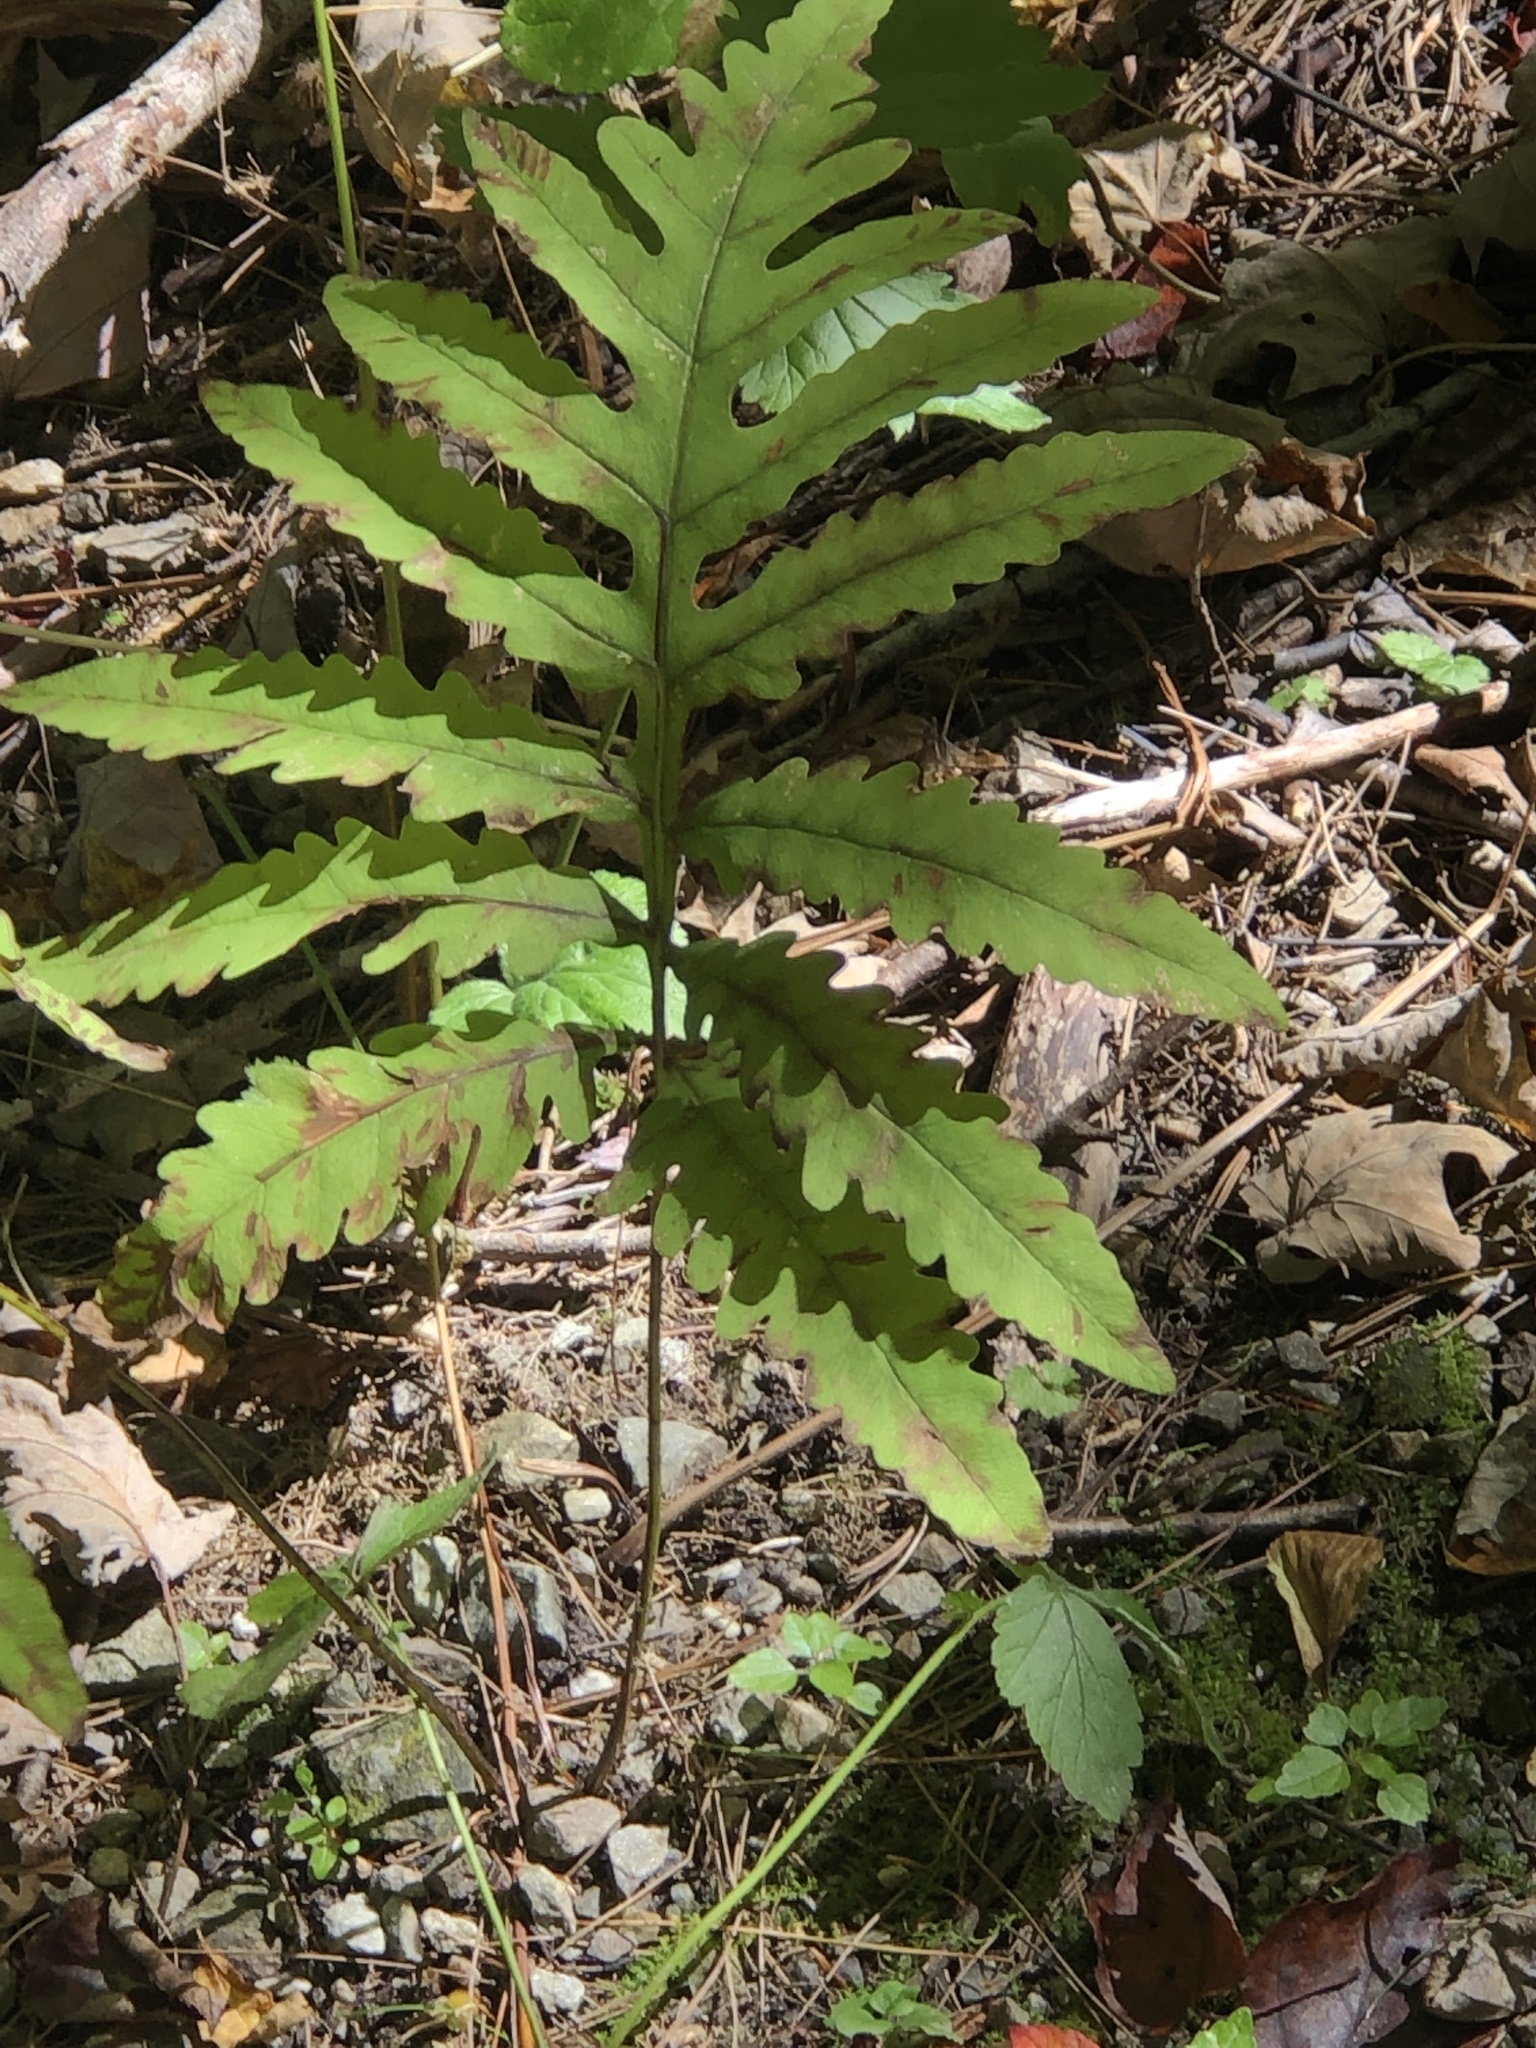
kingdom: Plantae
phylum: Tracheophyta
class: Polypodiopsida
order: Polypodiales
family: Onocleaceae
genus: Onoclea
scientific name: Onoclea sensibilis
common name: Sensitive fern
